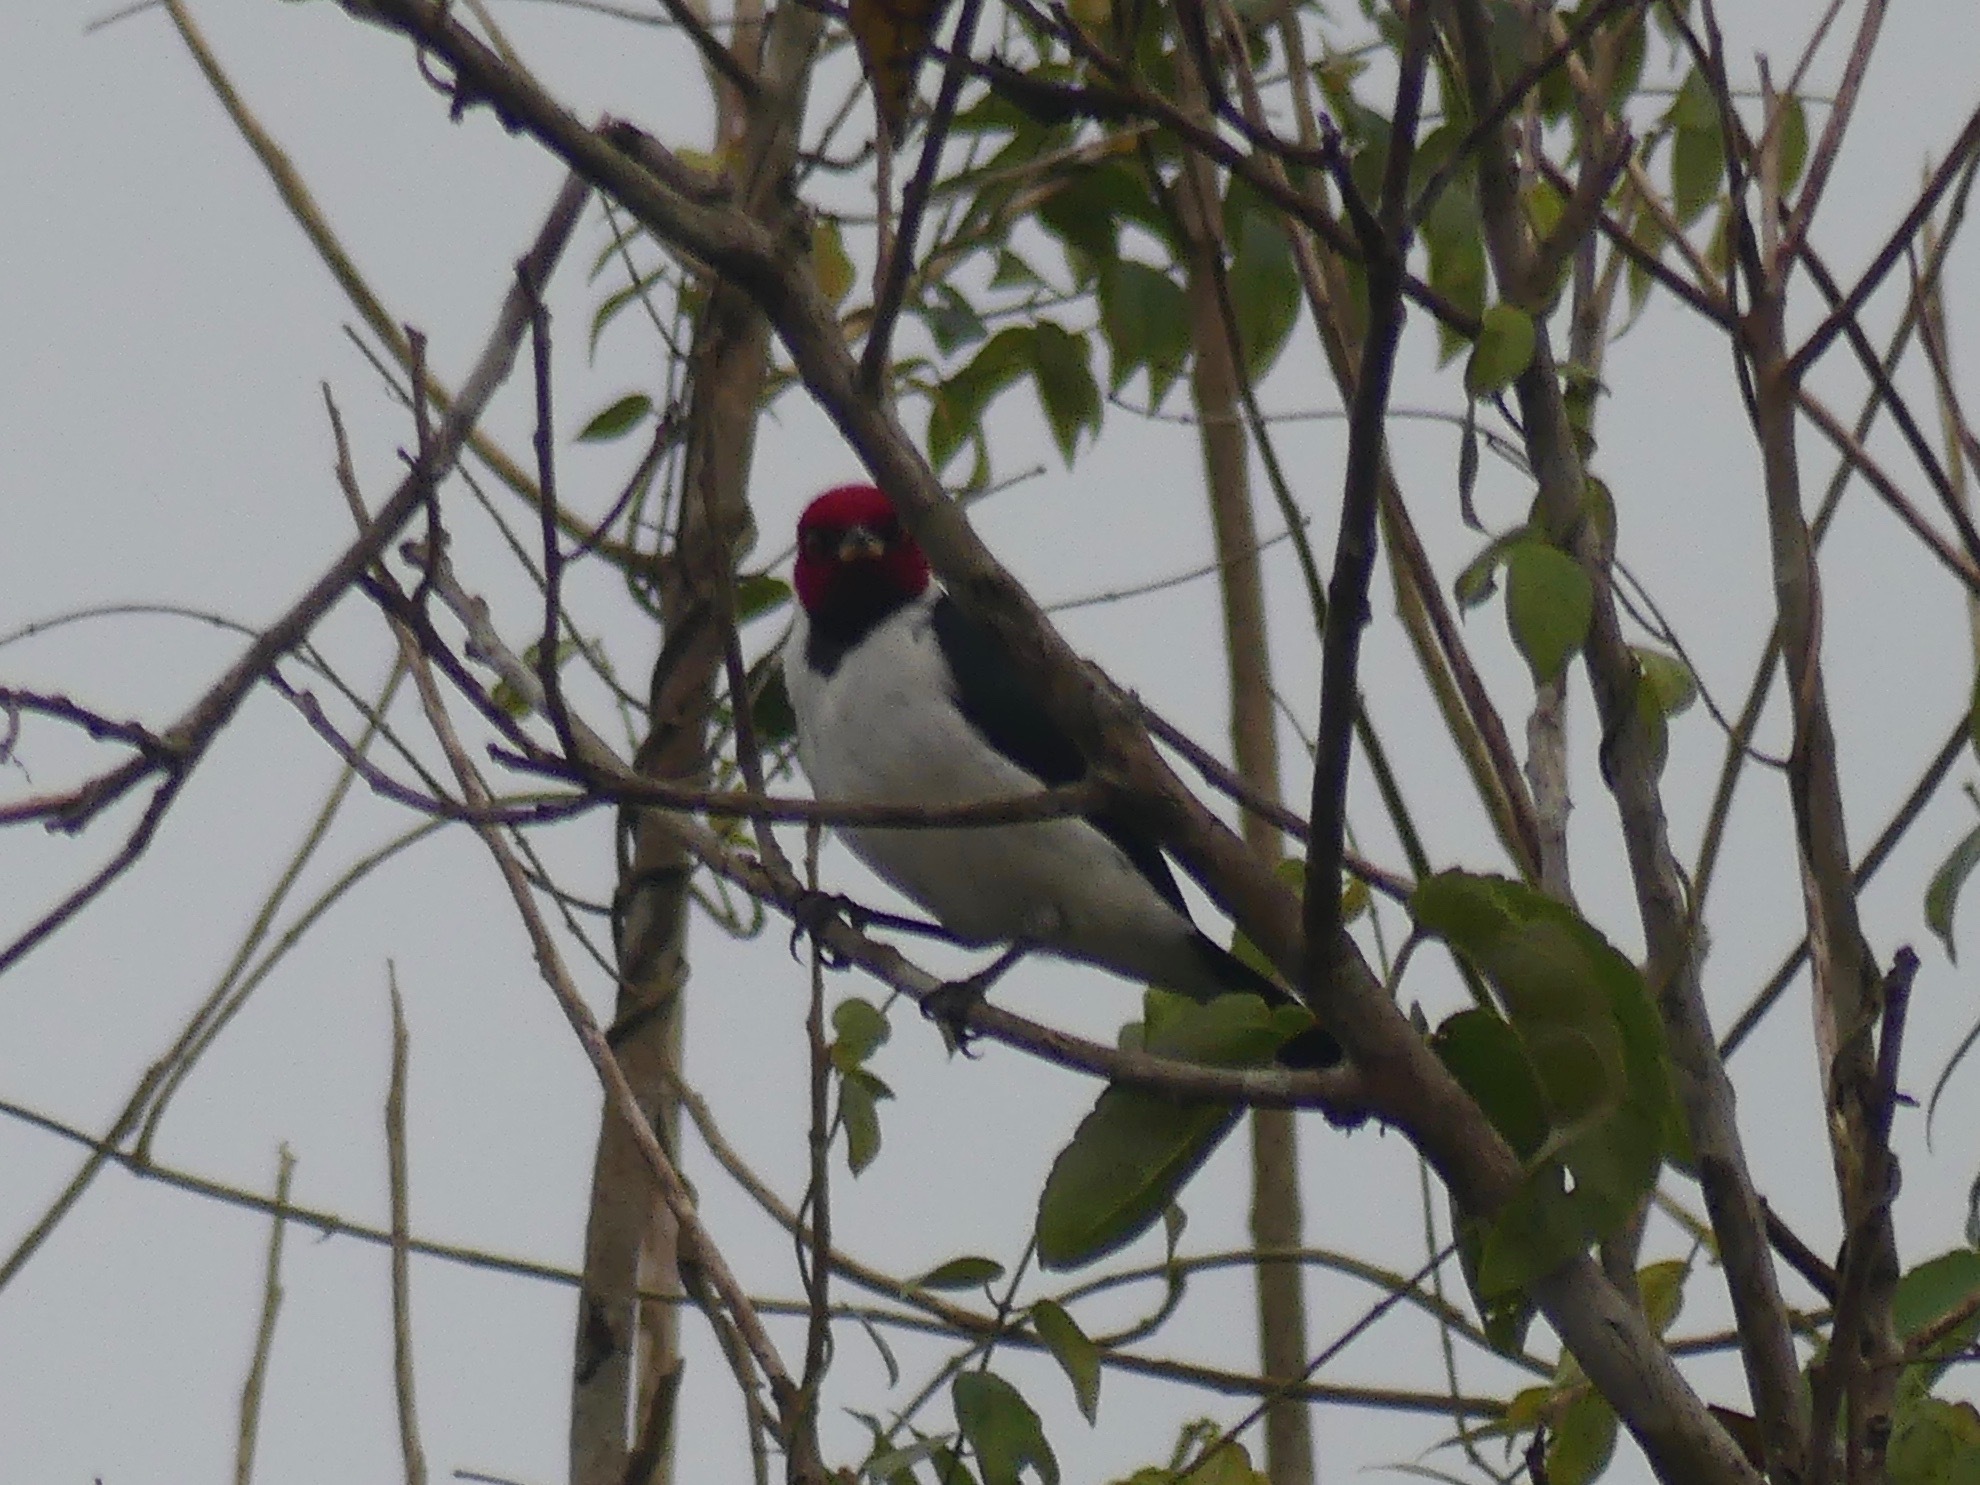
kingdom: Animalia
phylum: Chordata
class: Aves
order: Passeriformes
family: Thraupidae
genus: Paroaria
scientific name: Paroaria gularis
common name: Red-capped cardinal
